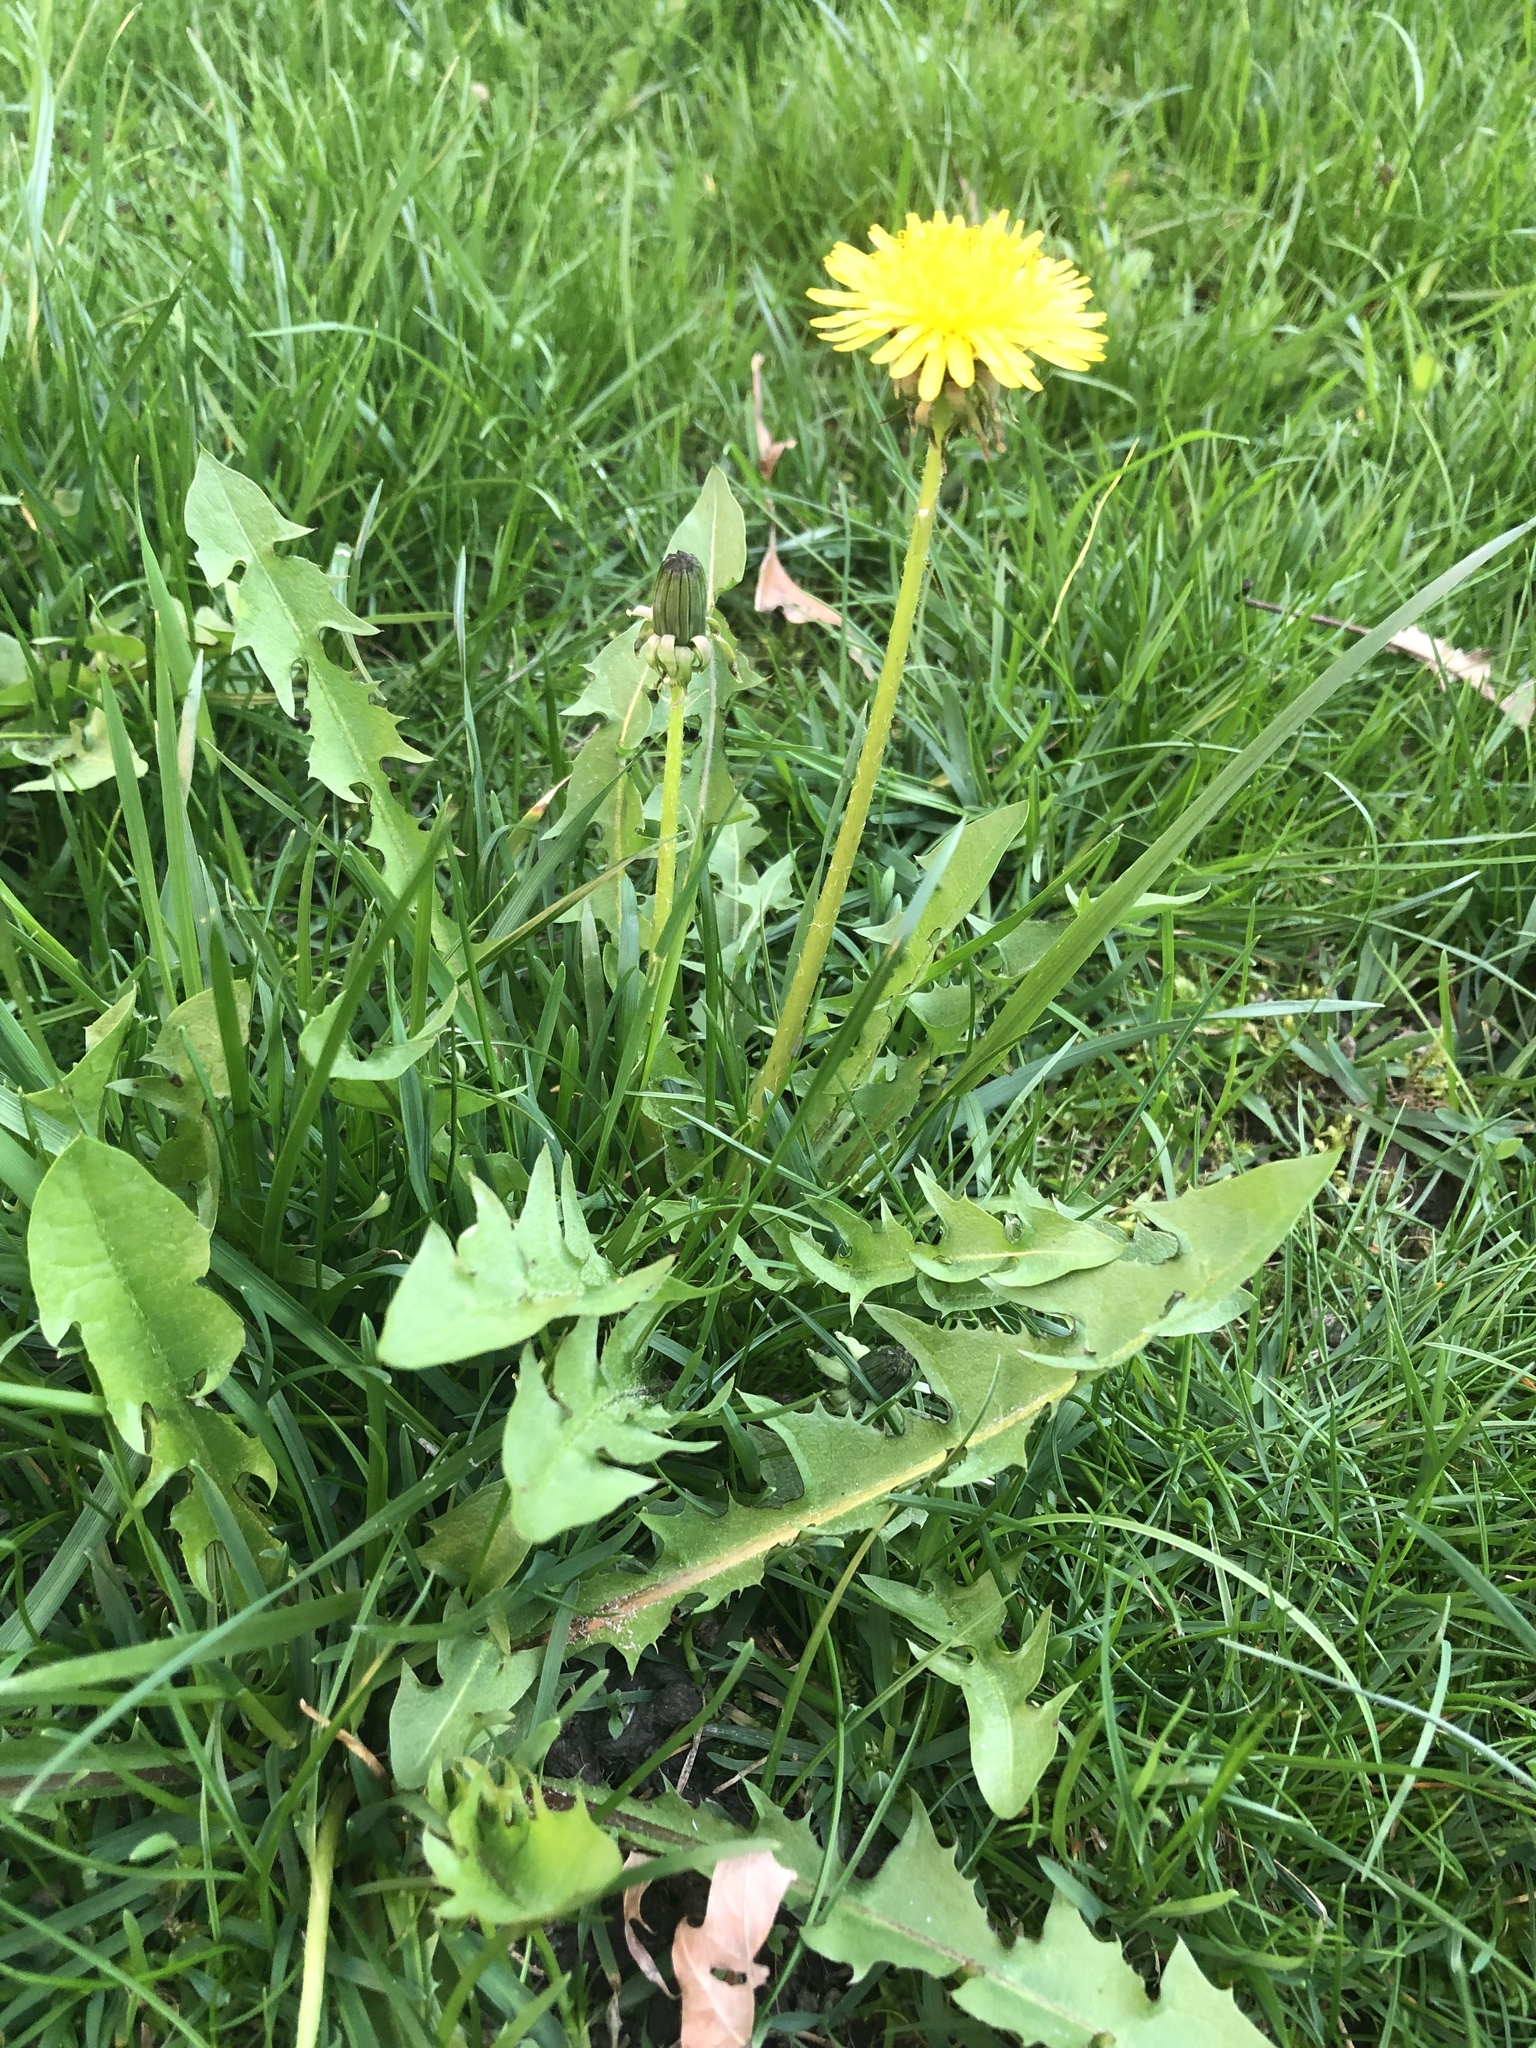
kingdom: Plantae
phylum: Tracheophyta
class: Magnoliopsida
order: Asterales
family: Asteraceae
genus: Taraxacum
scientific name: Taraxacum officinale
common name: Common dandelion
